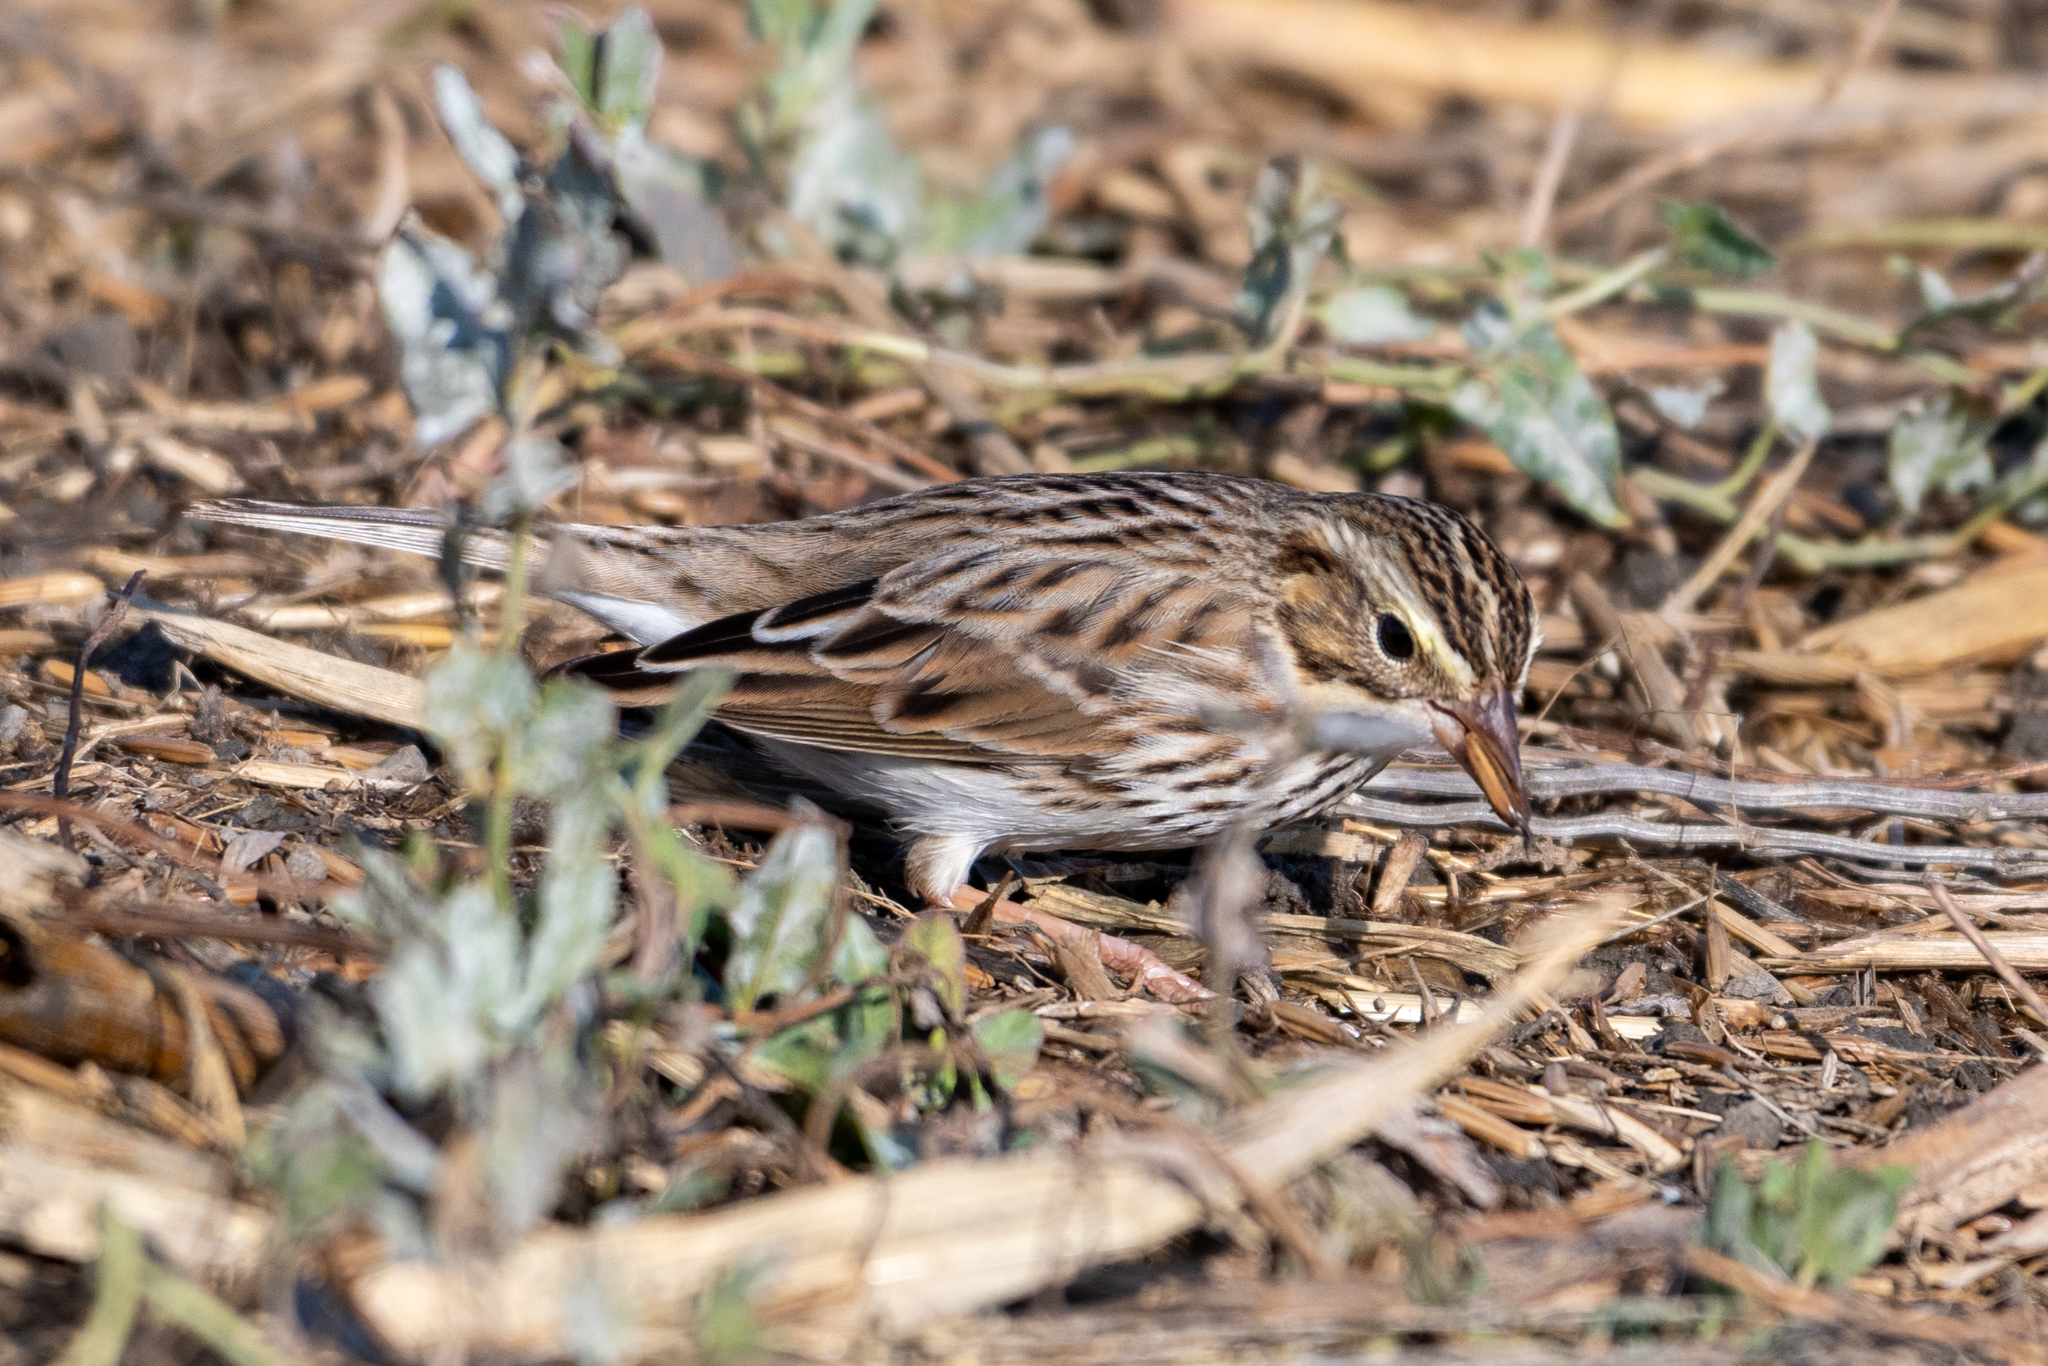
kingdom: Animalia
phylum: Chordata
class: Aves
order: Passeriformes
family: Passerellidae
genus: Passerculus
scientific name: Passerculus sandwichensis
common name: Savannah sparrow
